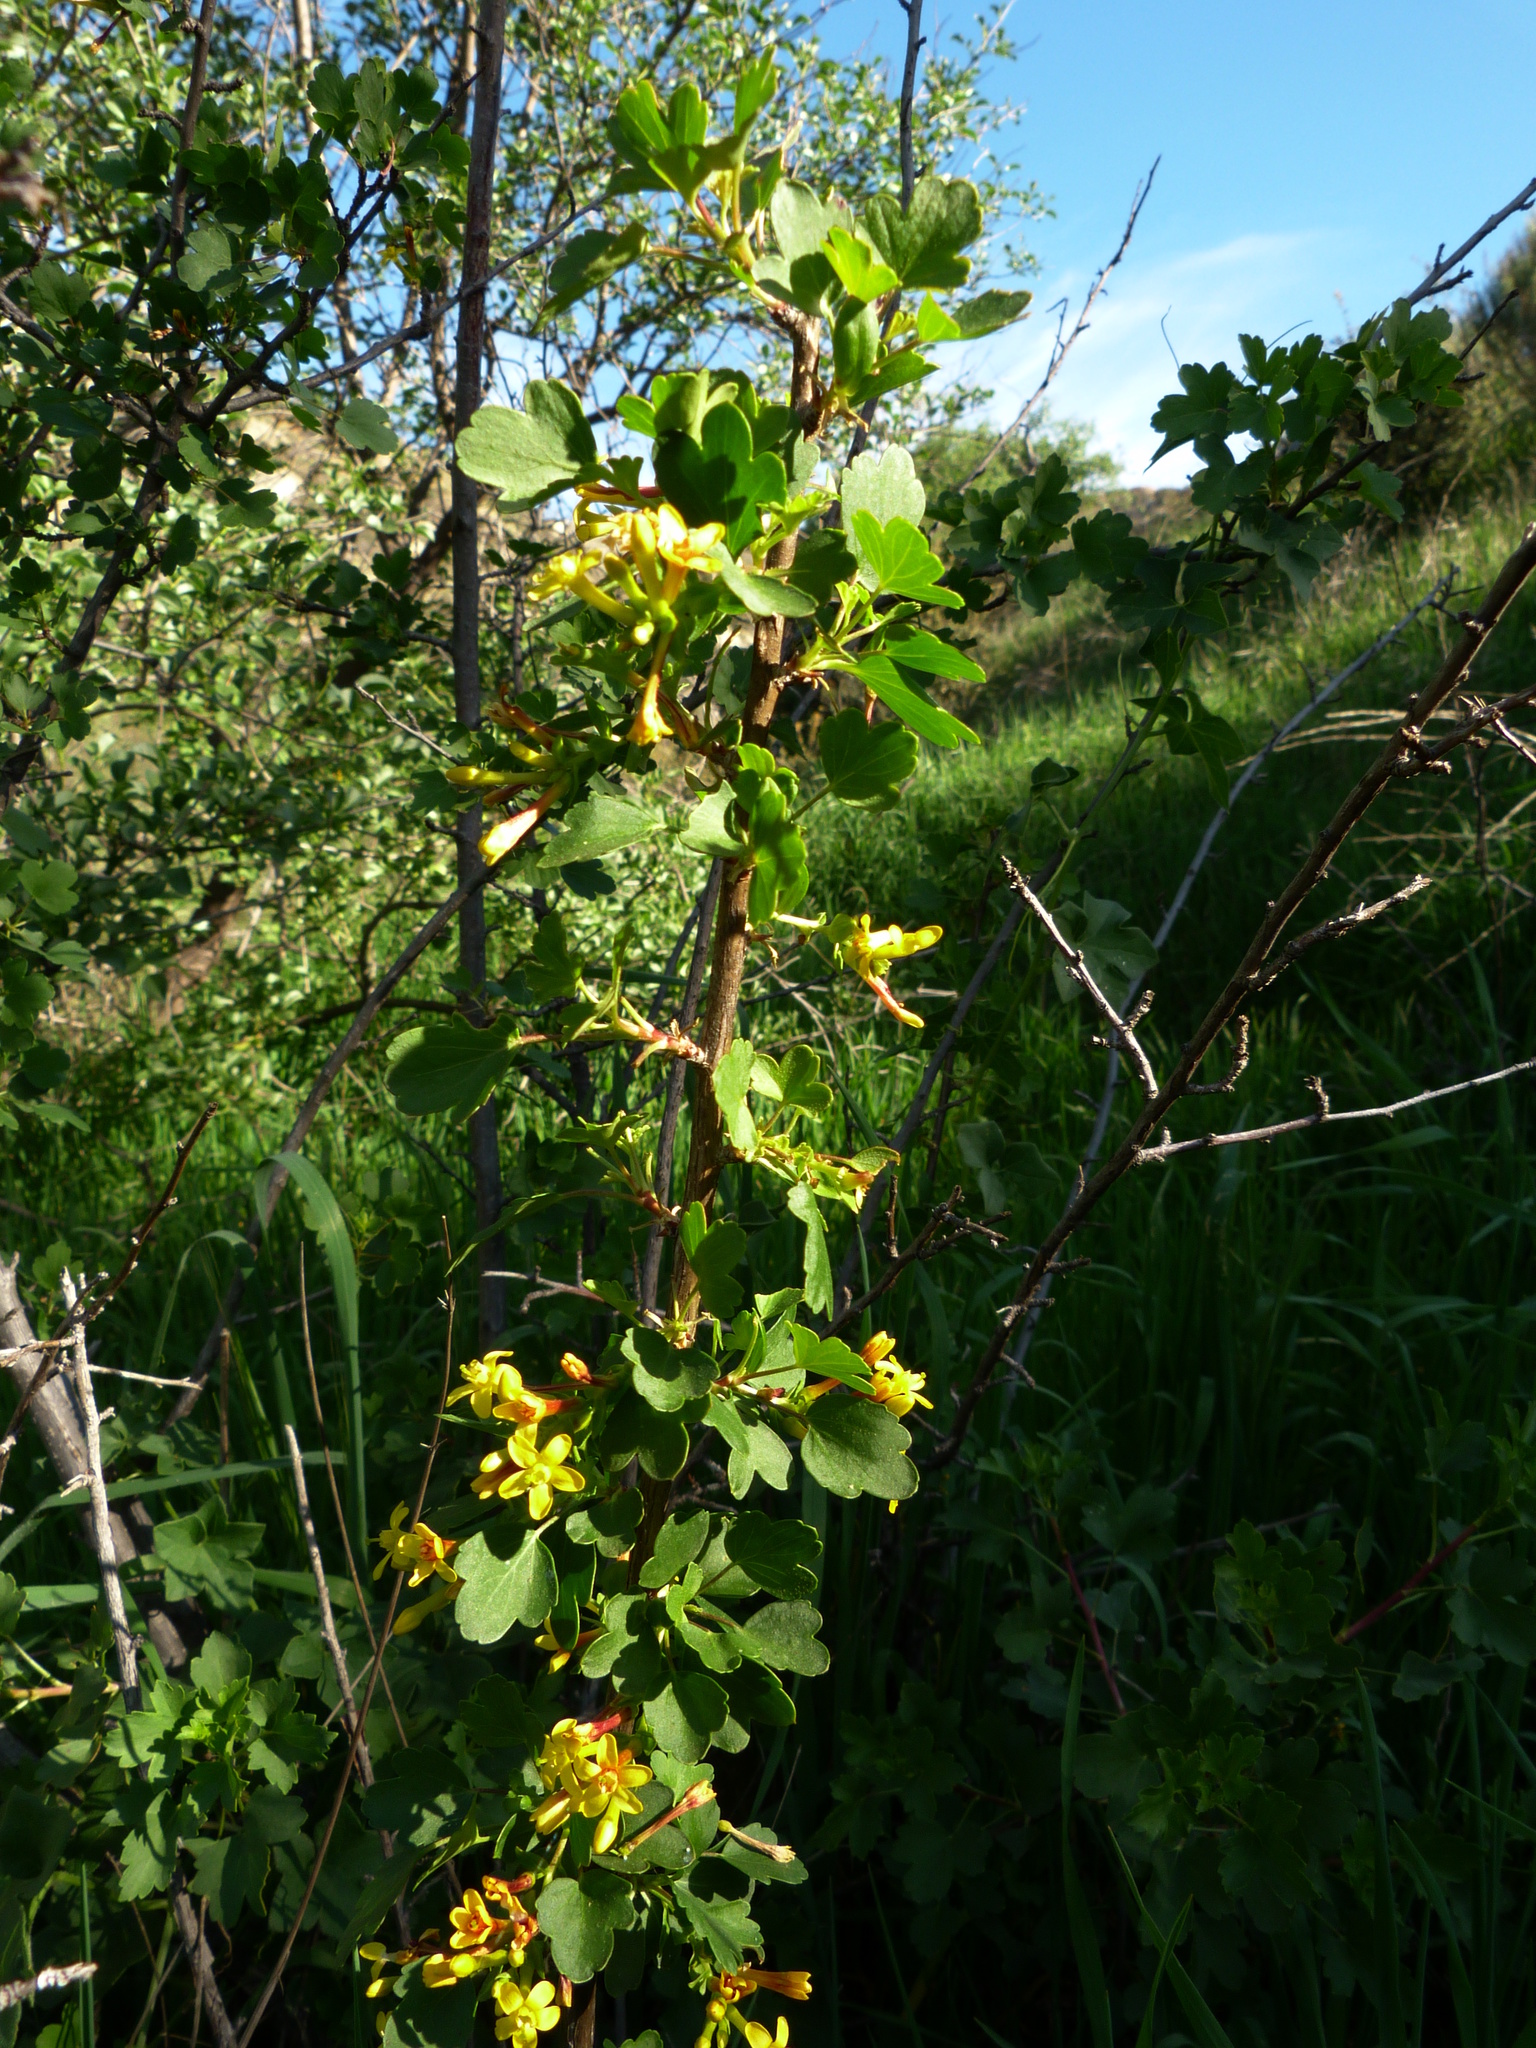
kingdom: Plantae
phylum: Tracheophyta
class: Magnoliopsida
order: Saxifragales
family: Grossulariaceae
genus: Ribes
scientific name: Ribes aureum
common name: Golden currant
